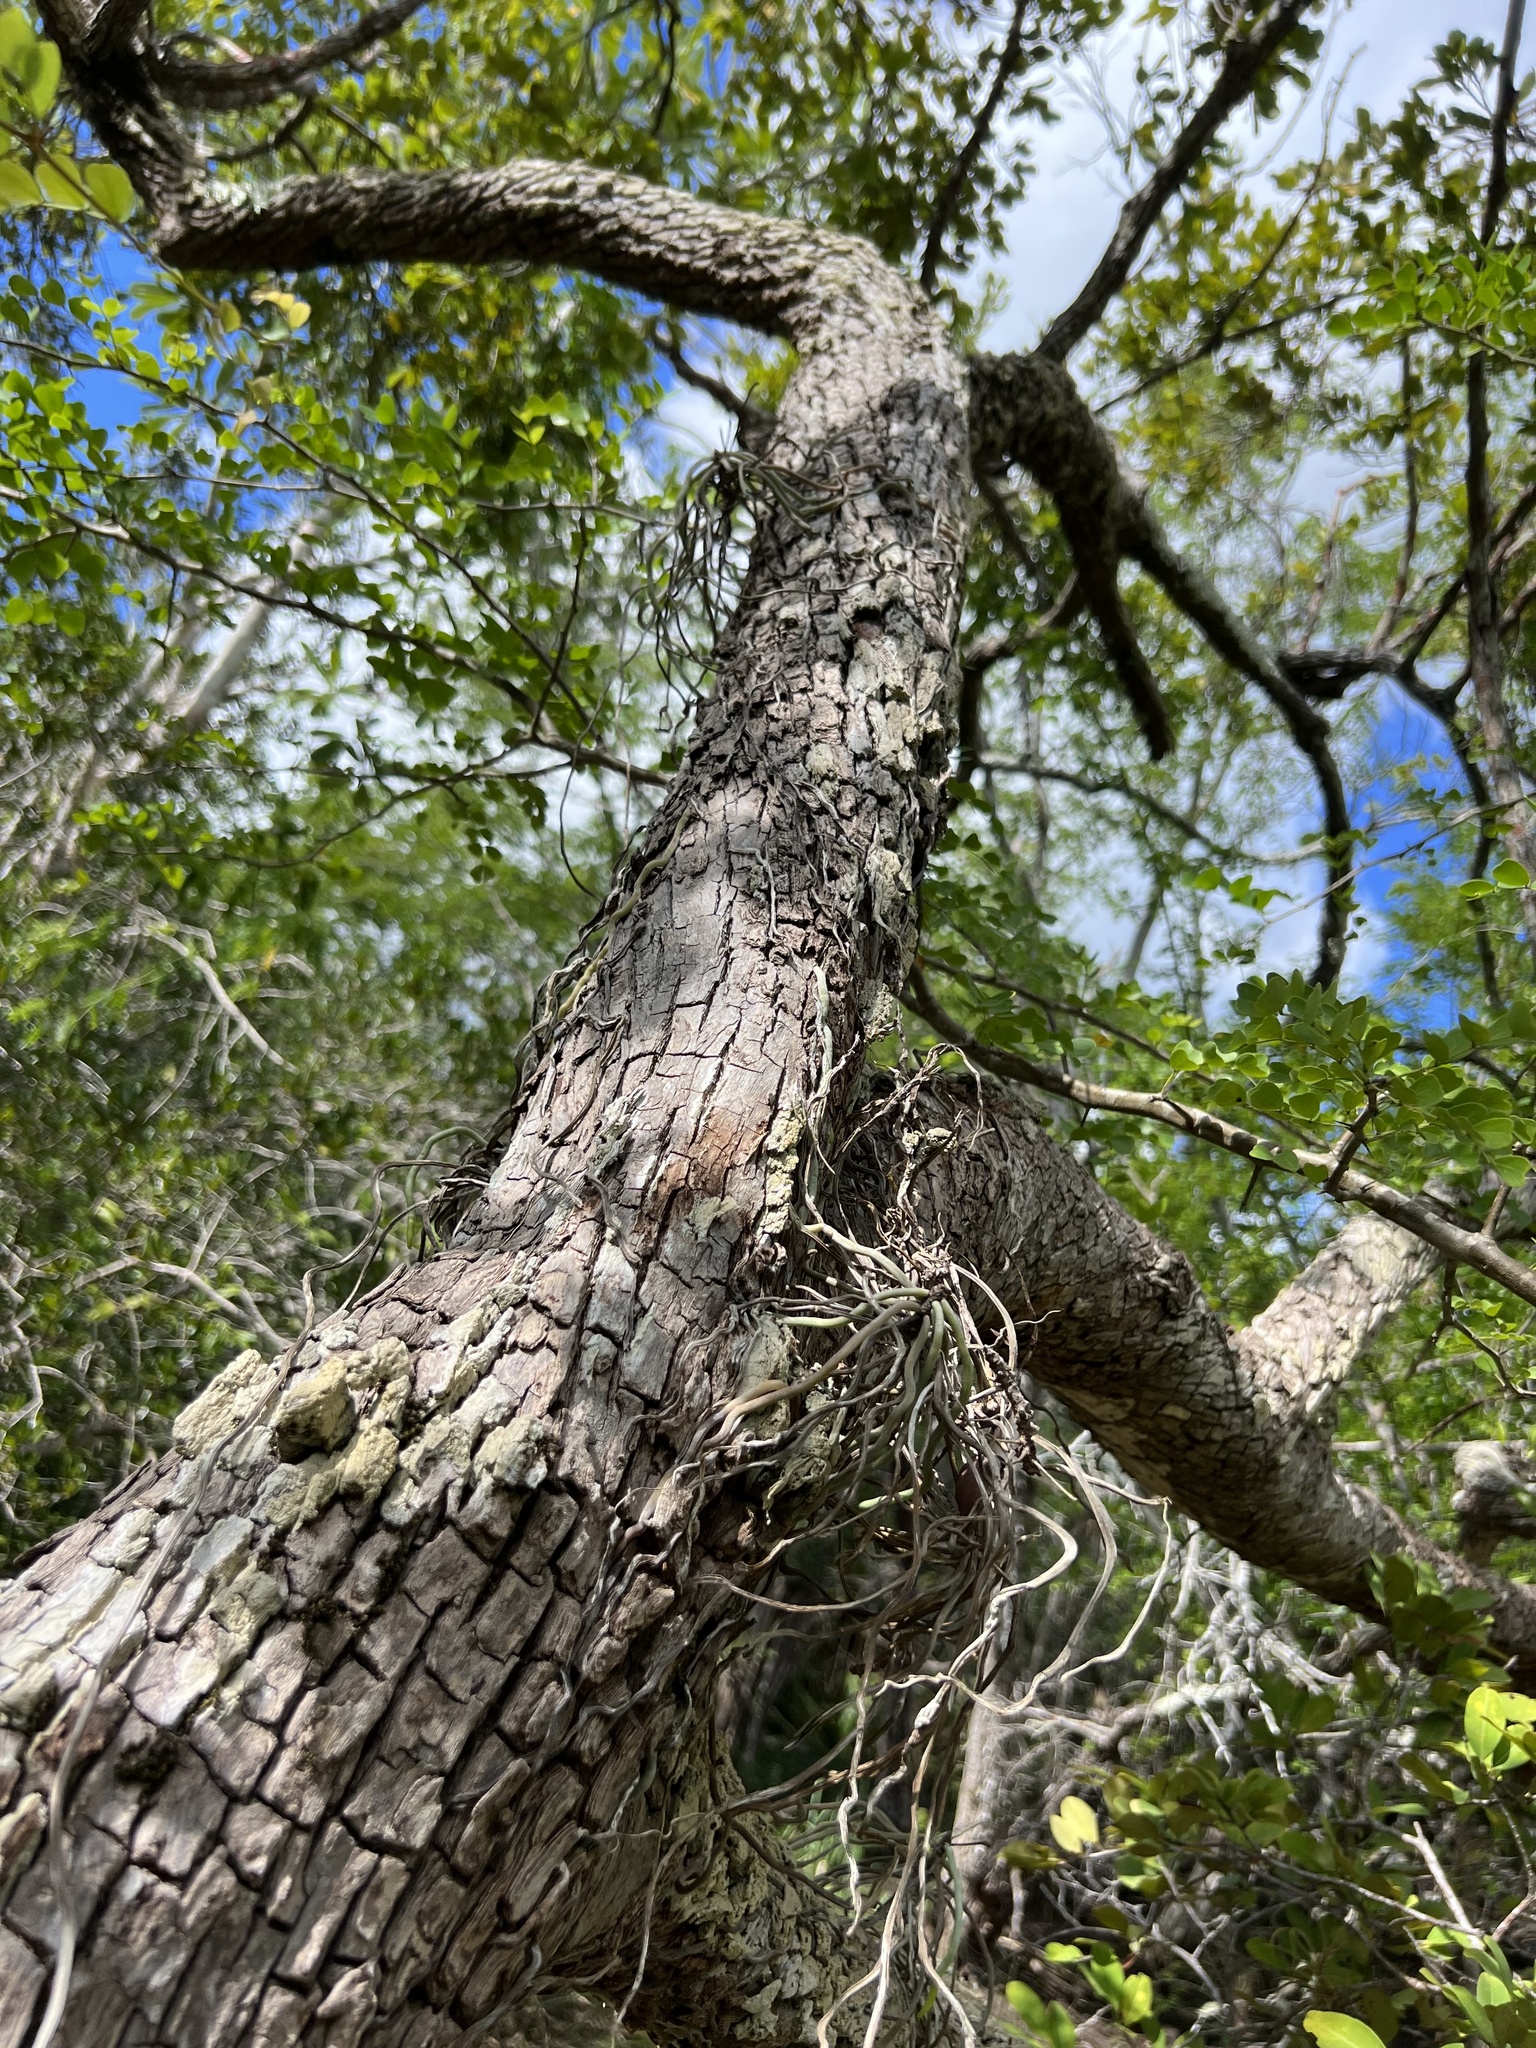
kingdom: Plantae
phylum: Tracheophyta
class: Liliopsida
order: Asparagales
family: Orchidaceae
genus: Dendrophylax
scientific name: Dendrophylax fawcettii
